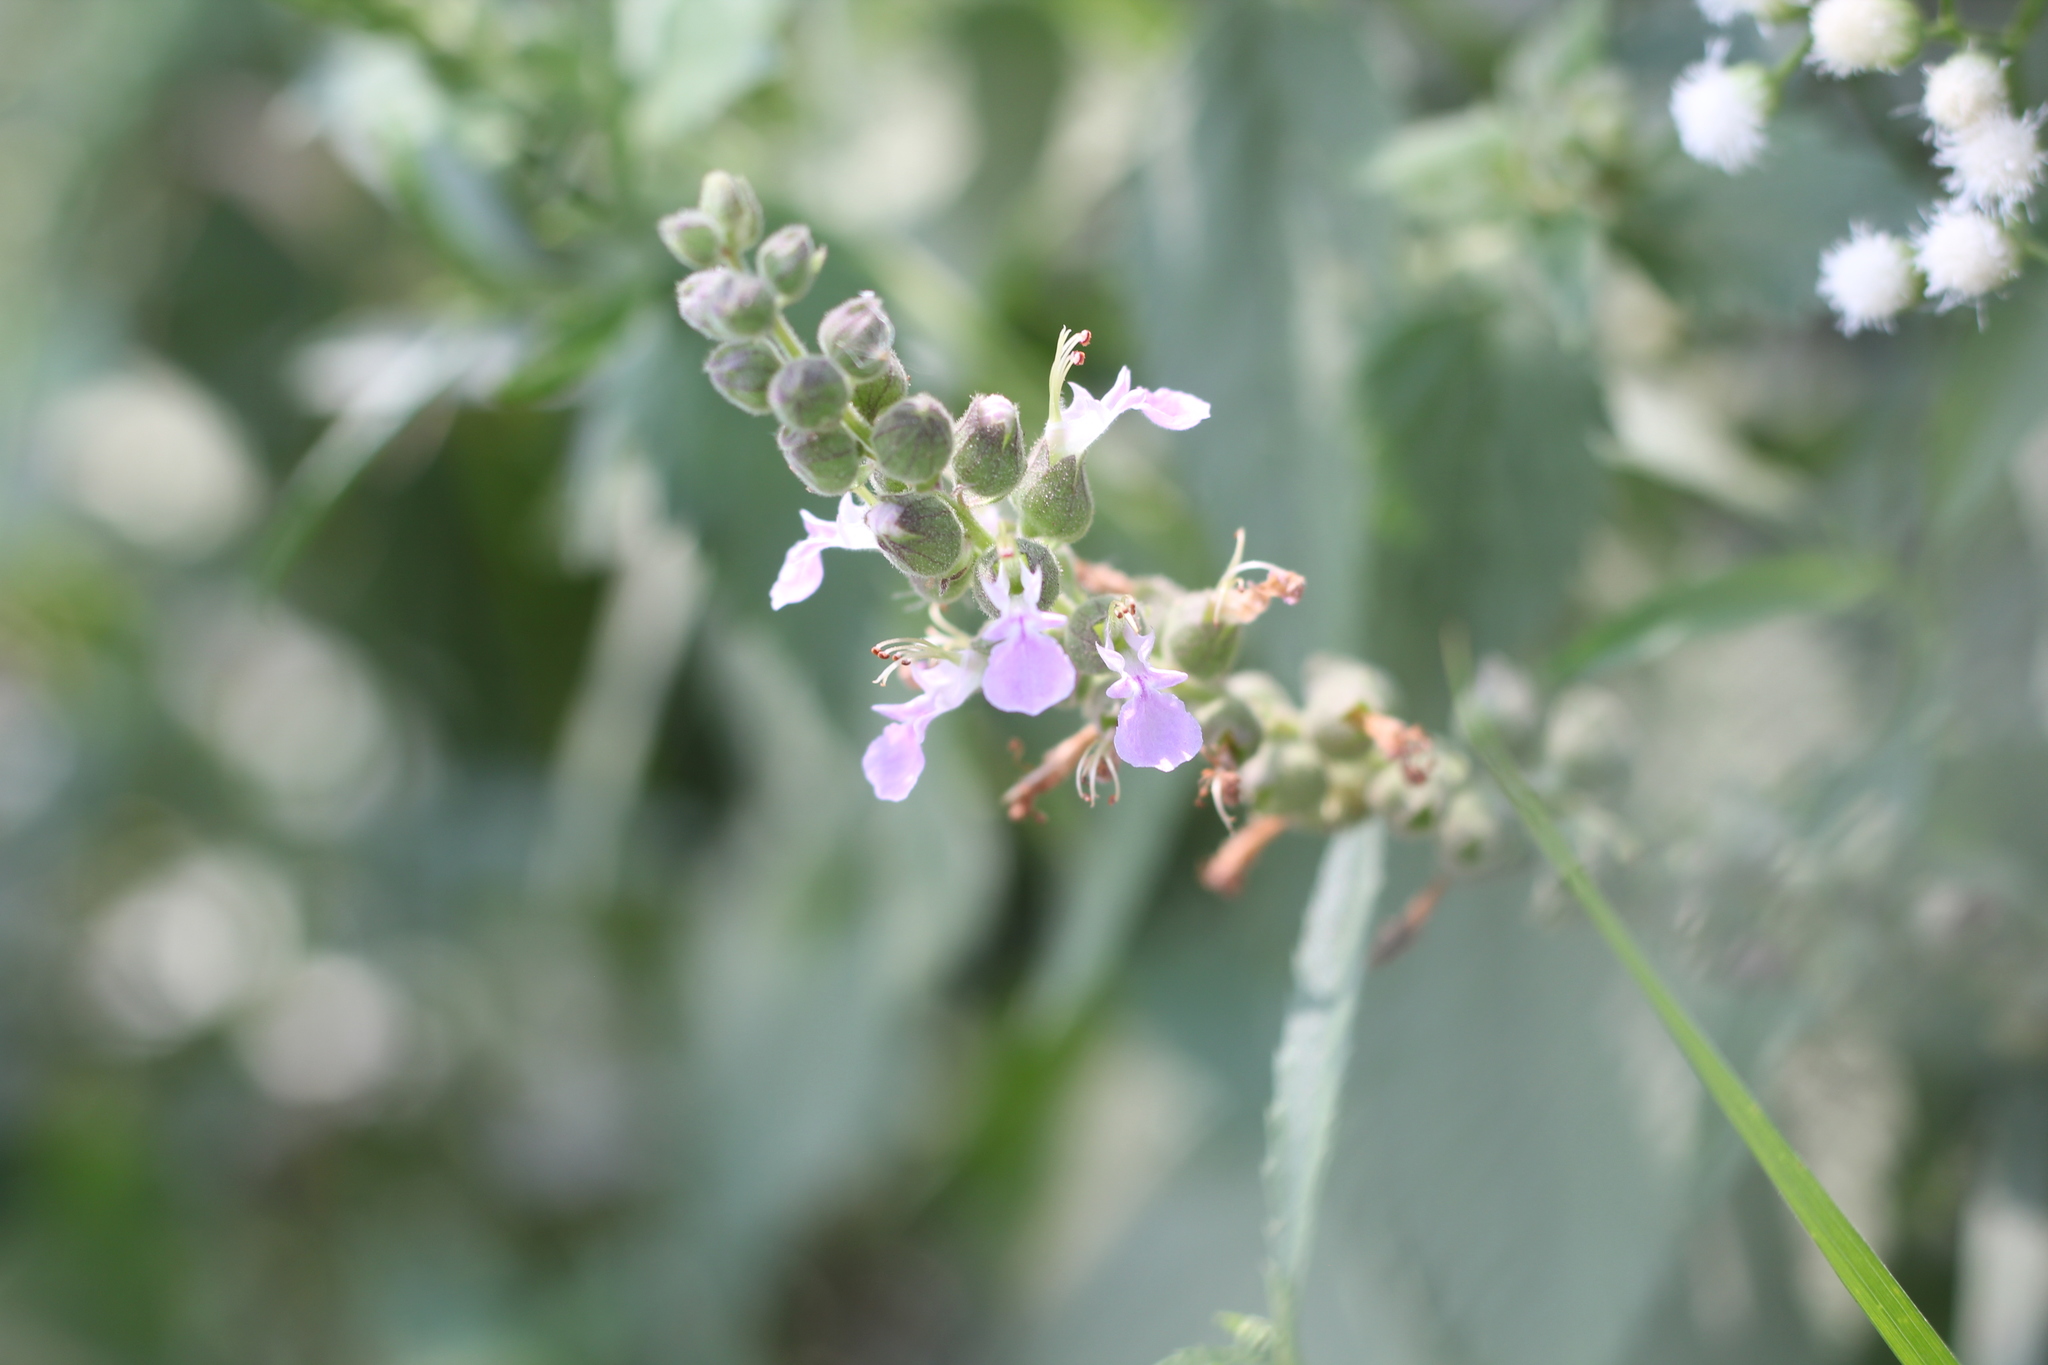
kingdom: Plantae
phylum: Tracheophyta
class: Magnoliopsida
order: Lamiales
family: Lamiaceae
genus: Teucrium
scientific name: Teucrium vesicarium
